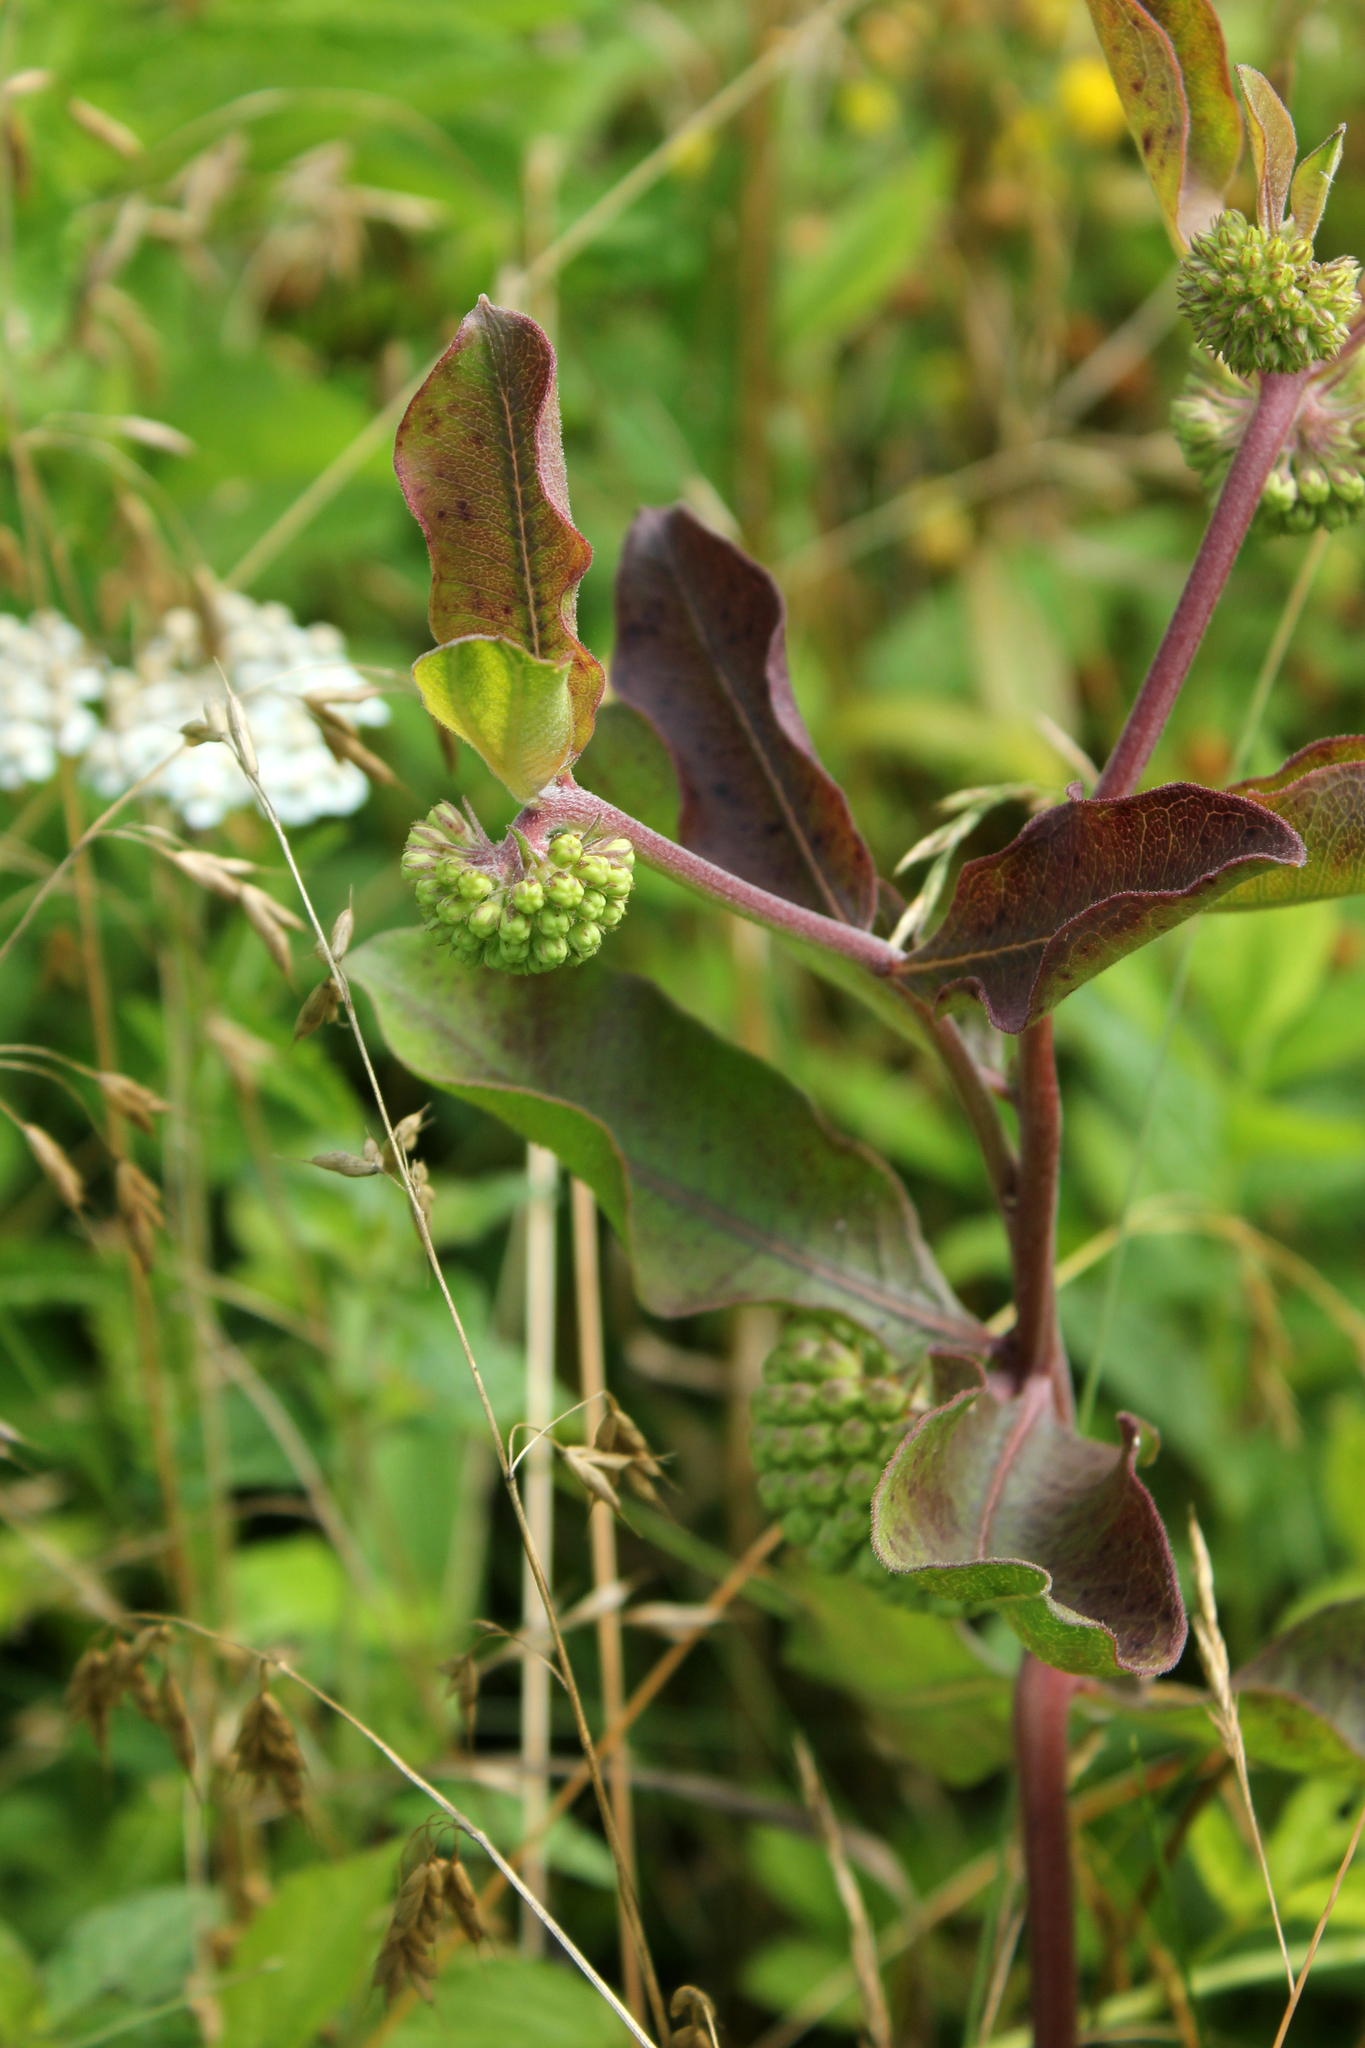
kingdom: Plantae
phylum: Tracheophyta
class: Magnoliopsida
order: Gentianales
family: Apocynaceae
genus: Asclepias
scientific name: Asclepias viridiflora
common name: Green comet milkweed
